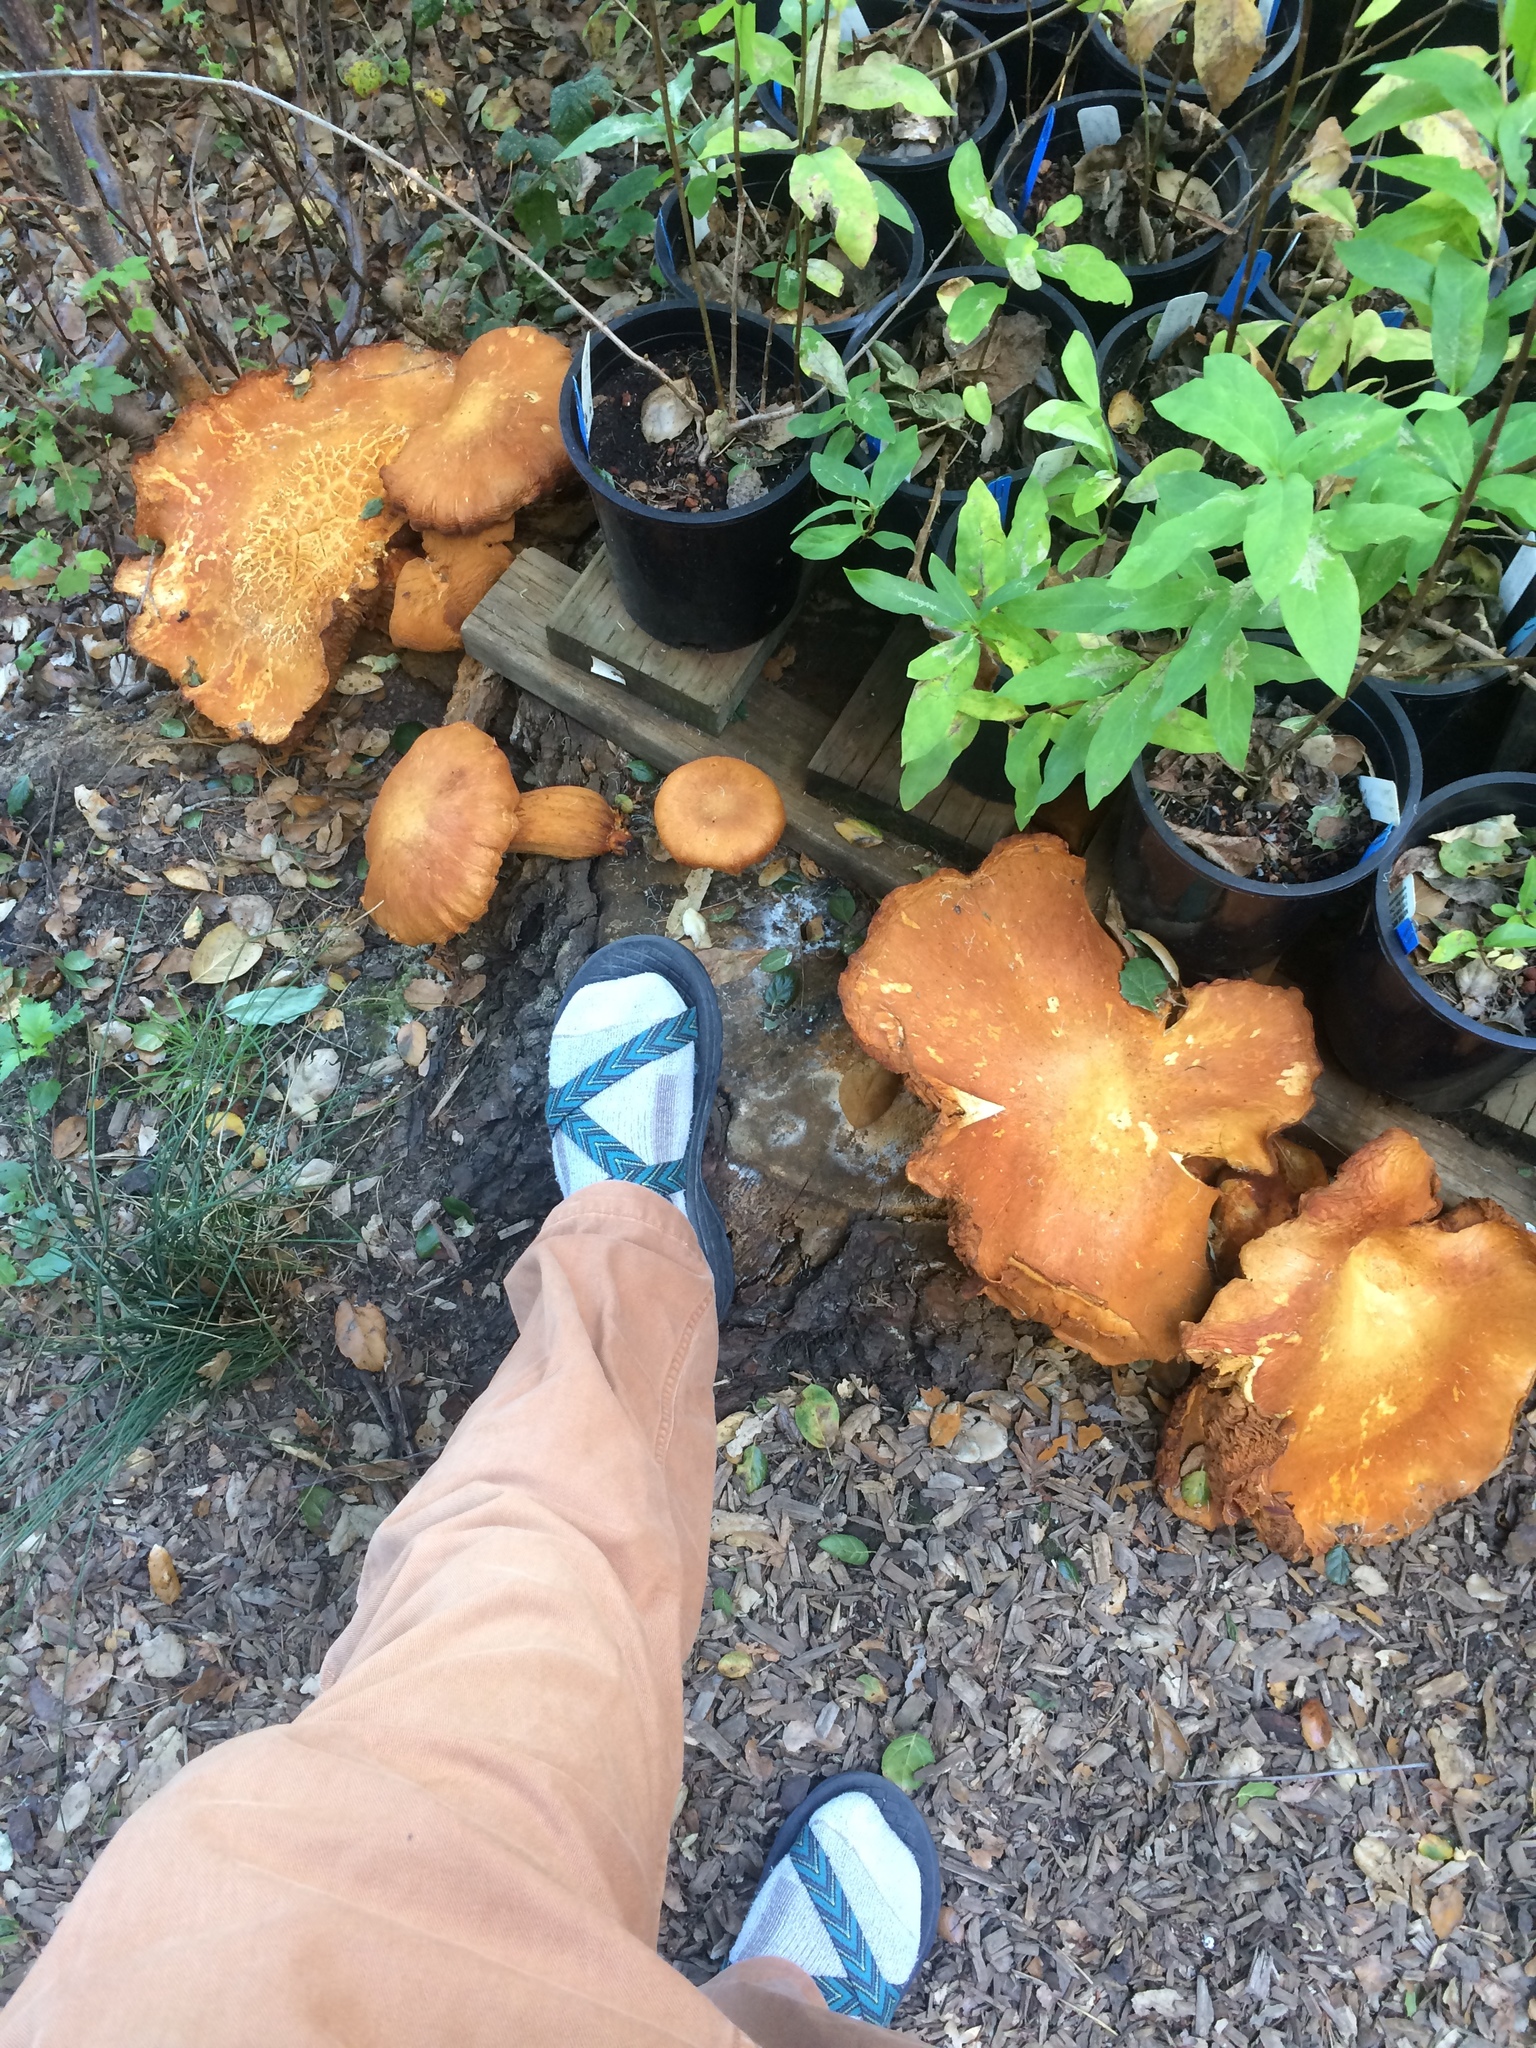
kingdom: Fungi
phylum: Basidiomycota
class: Agaricomycetes
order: Agaricales
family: Hymenogastraceae
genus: Gymnopilus
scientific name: Gymnopilus ventricosus
